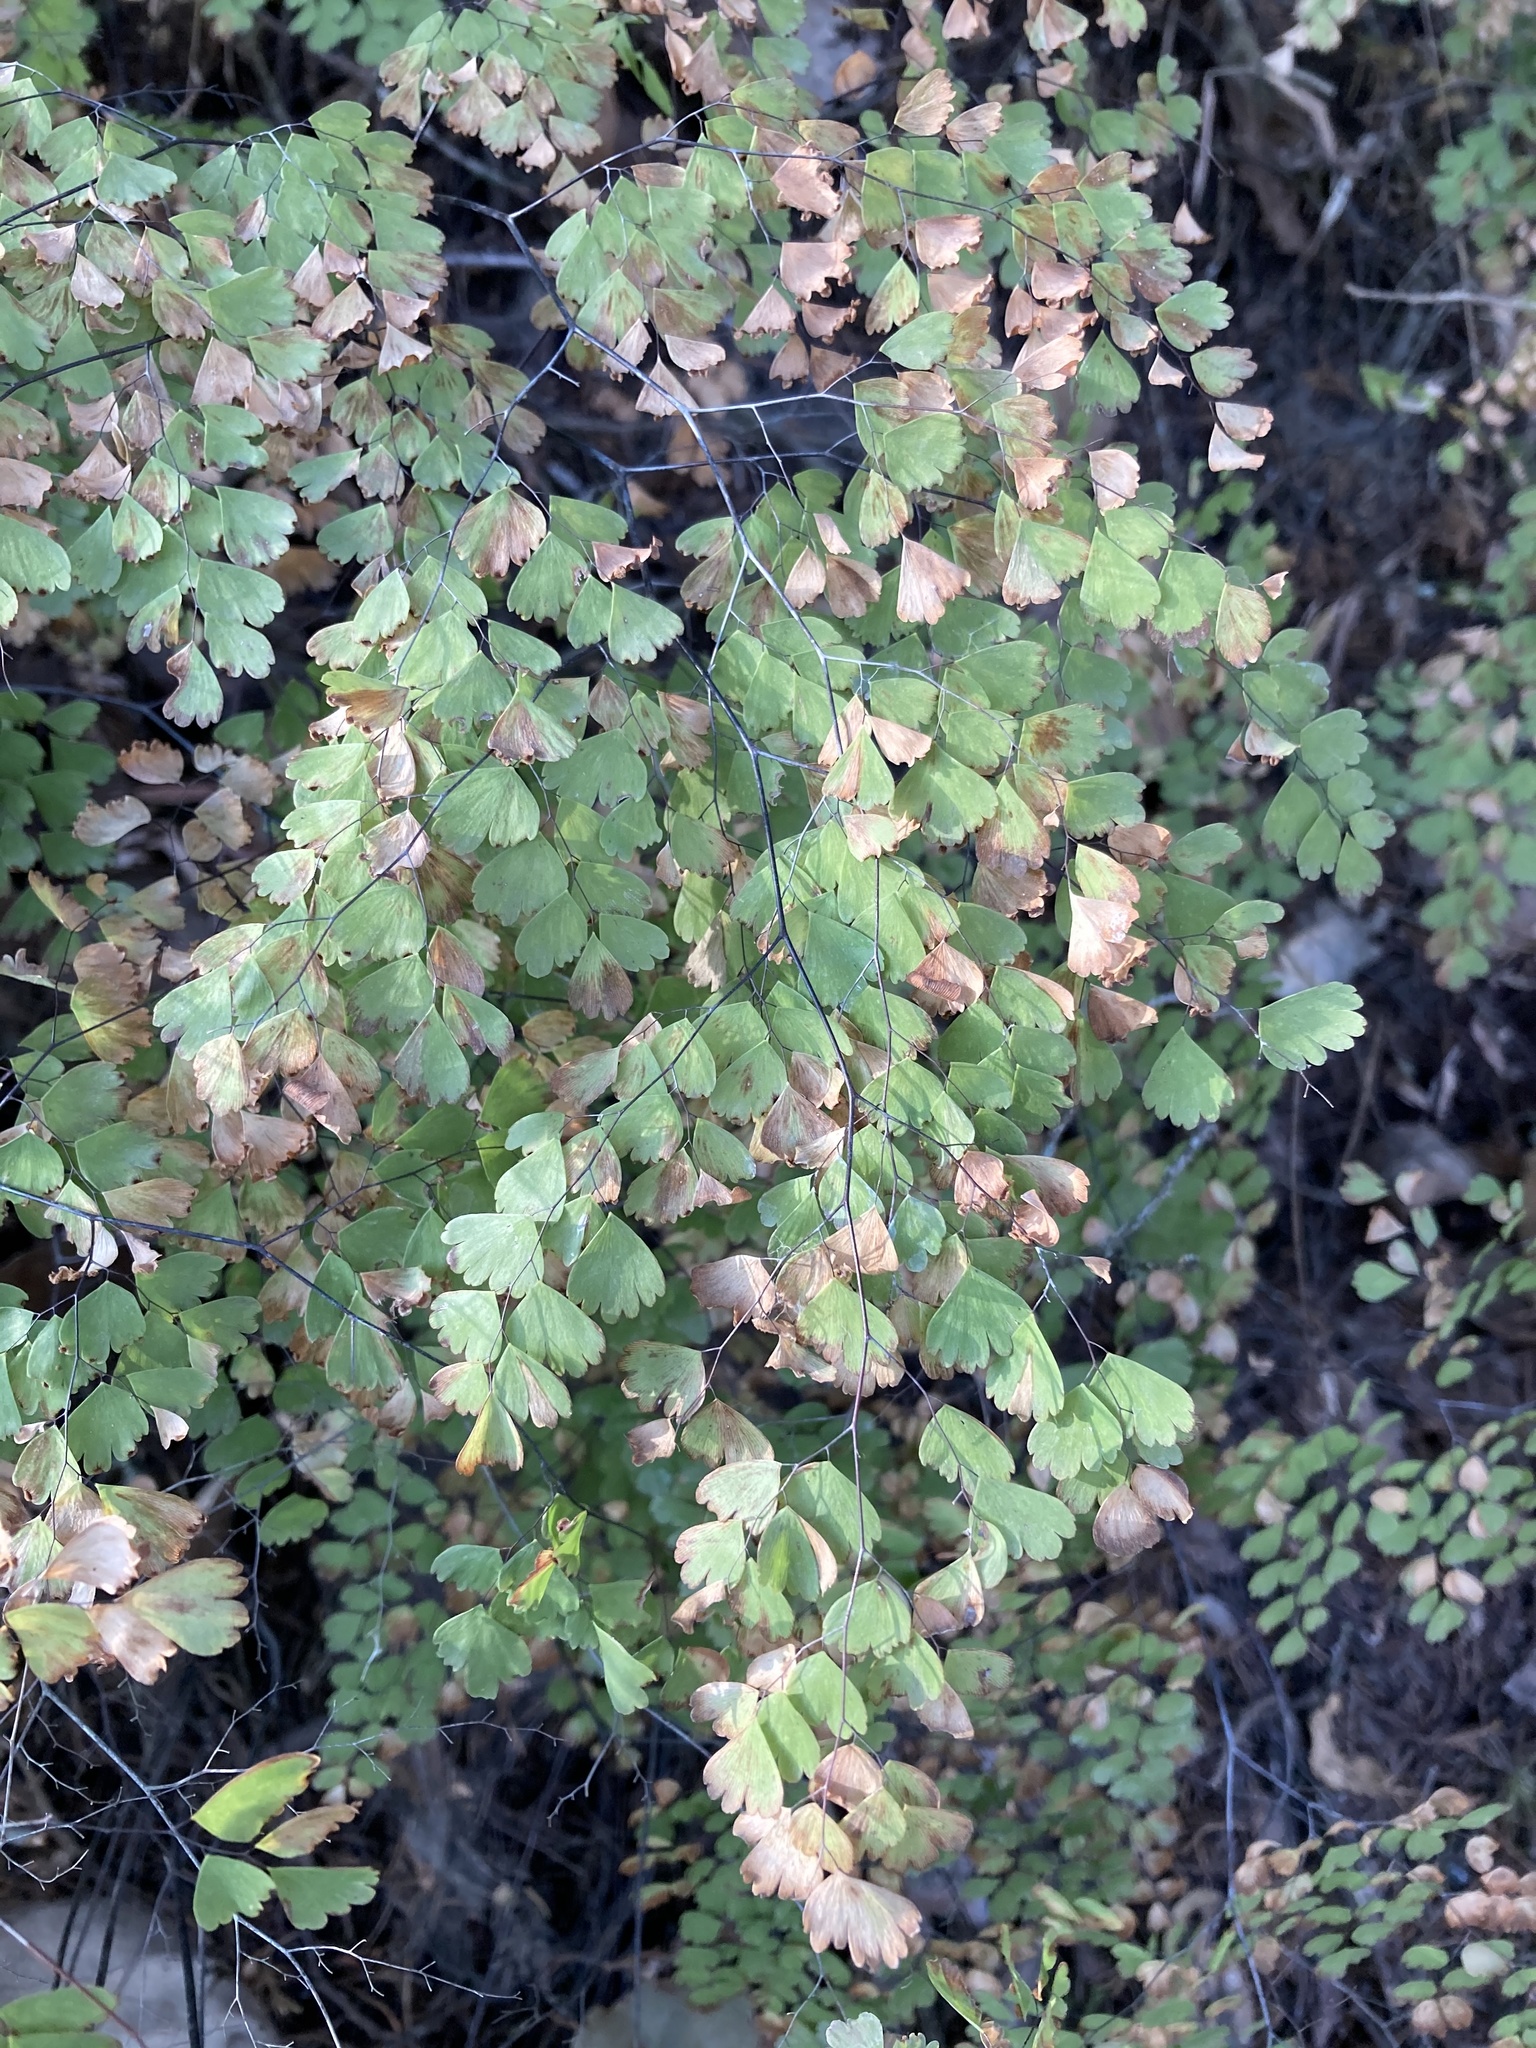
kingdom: Plantae
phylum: Tracheophyta
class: Polypodiopsida
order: Polypodiales
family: Pteridaceae
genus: Adiantum
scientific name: Adiantum andicola
